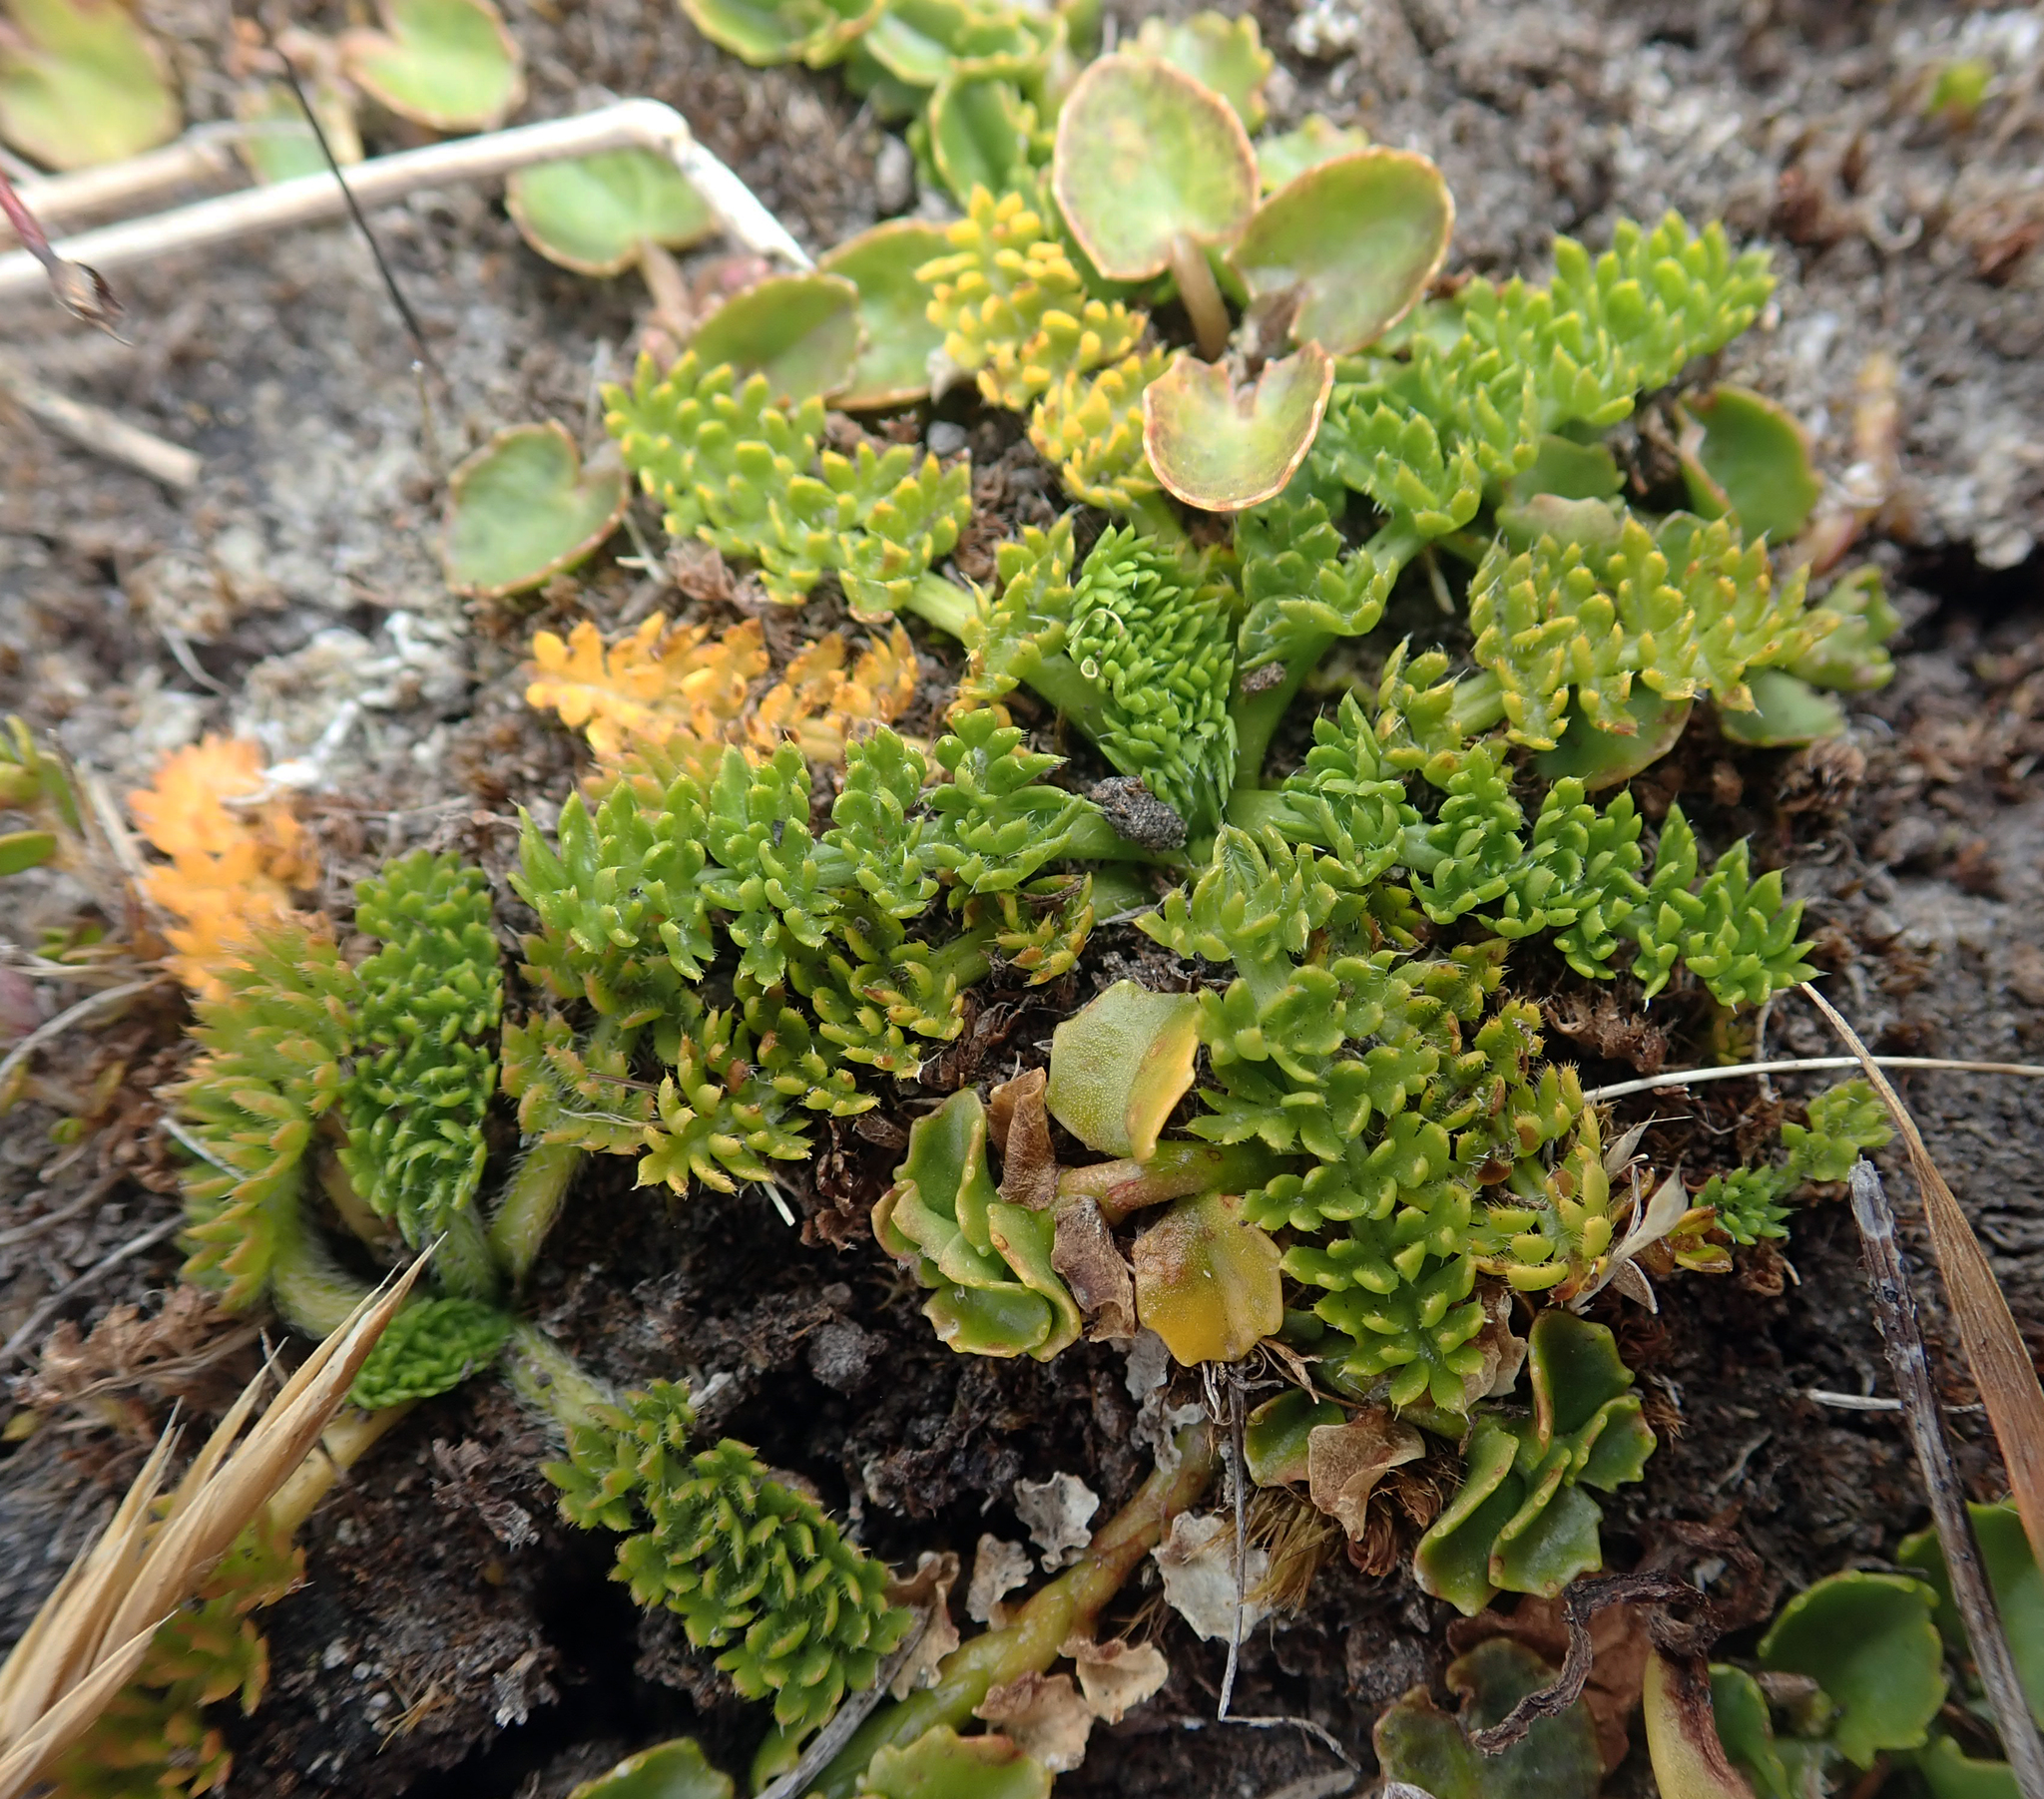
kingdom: Plantae
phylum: Tracheophyta
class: Magnoliopsida
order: Apiales
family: Apiaceae
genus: Chaerophyllum
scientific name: Chaerophyllum colensoi
